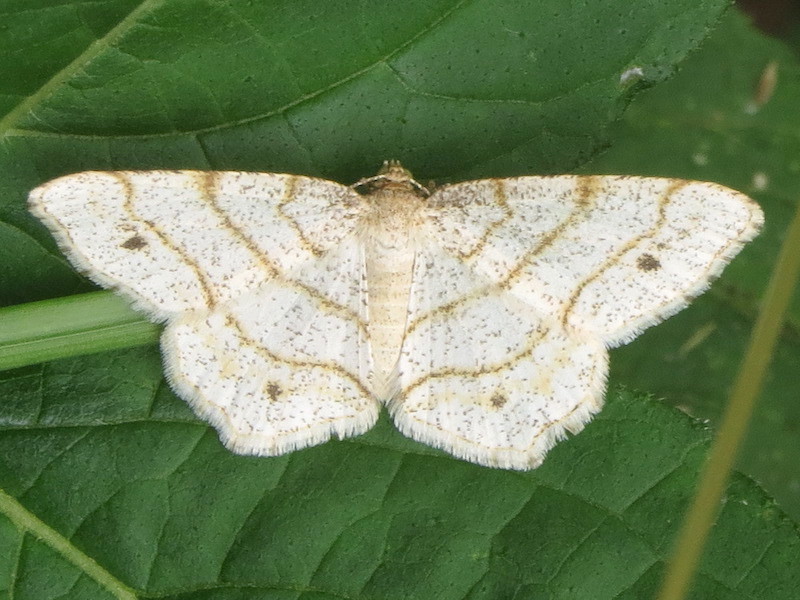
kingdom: Animalia
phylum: Arthropoda
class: Insecta
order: Lepidoptera
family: Geometridae
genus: Trigrammia
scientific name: Trigrammia quadrinotaria
